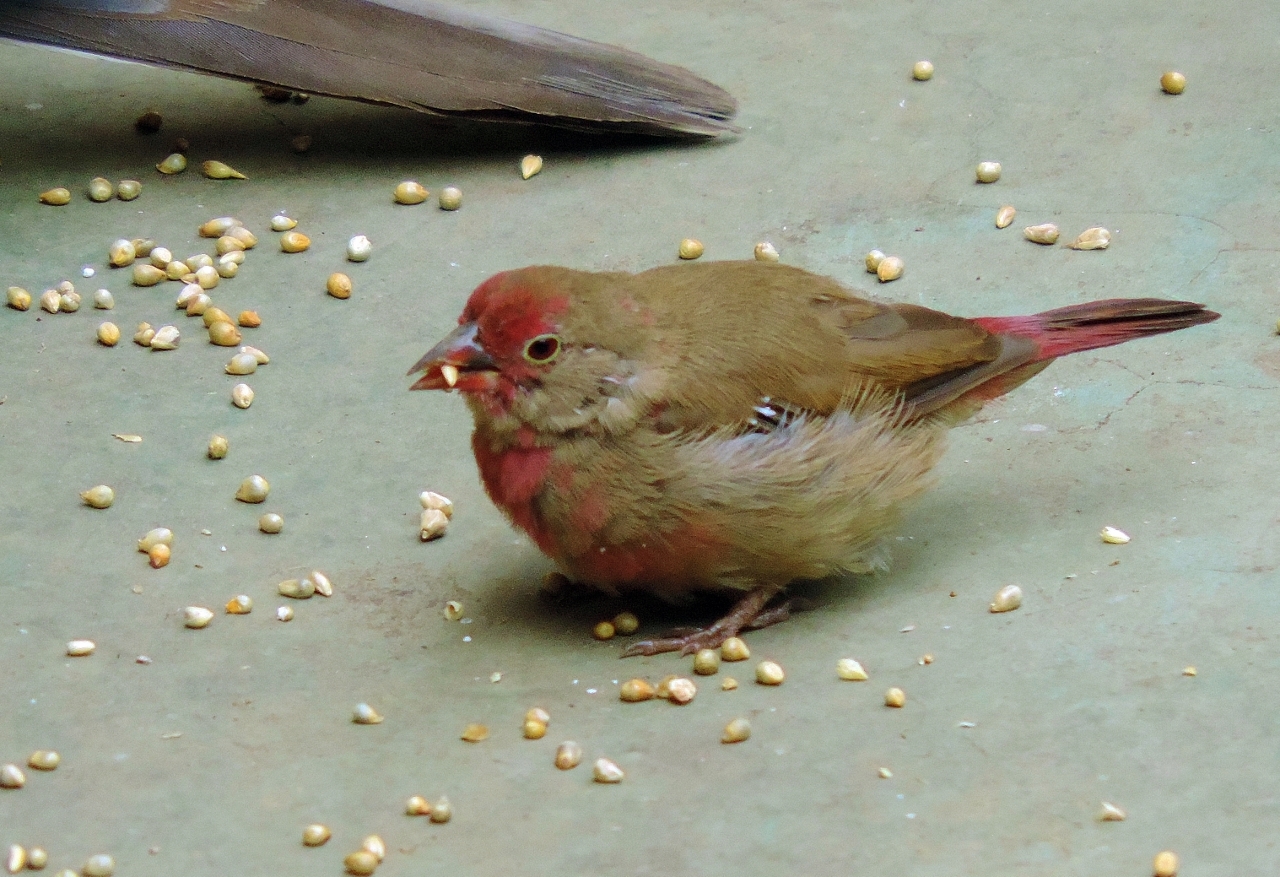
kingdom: Animalia
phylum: Chordata
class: Aves
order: Passeriformes
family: Estrildidae
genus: Lagonosticta
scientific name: Lagonosticta senegala
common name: Red-billed firefinch
